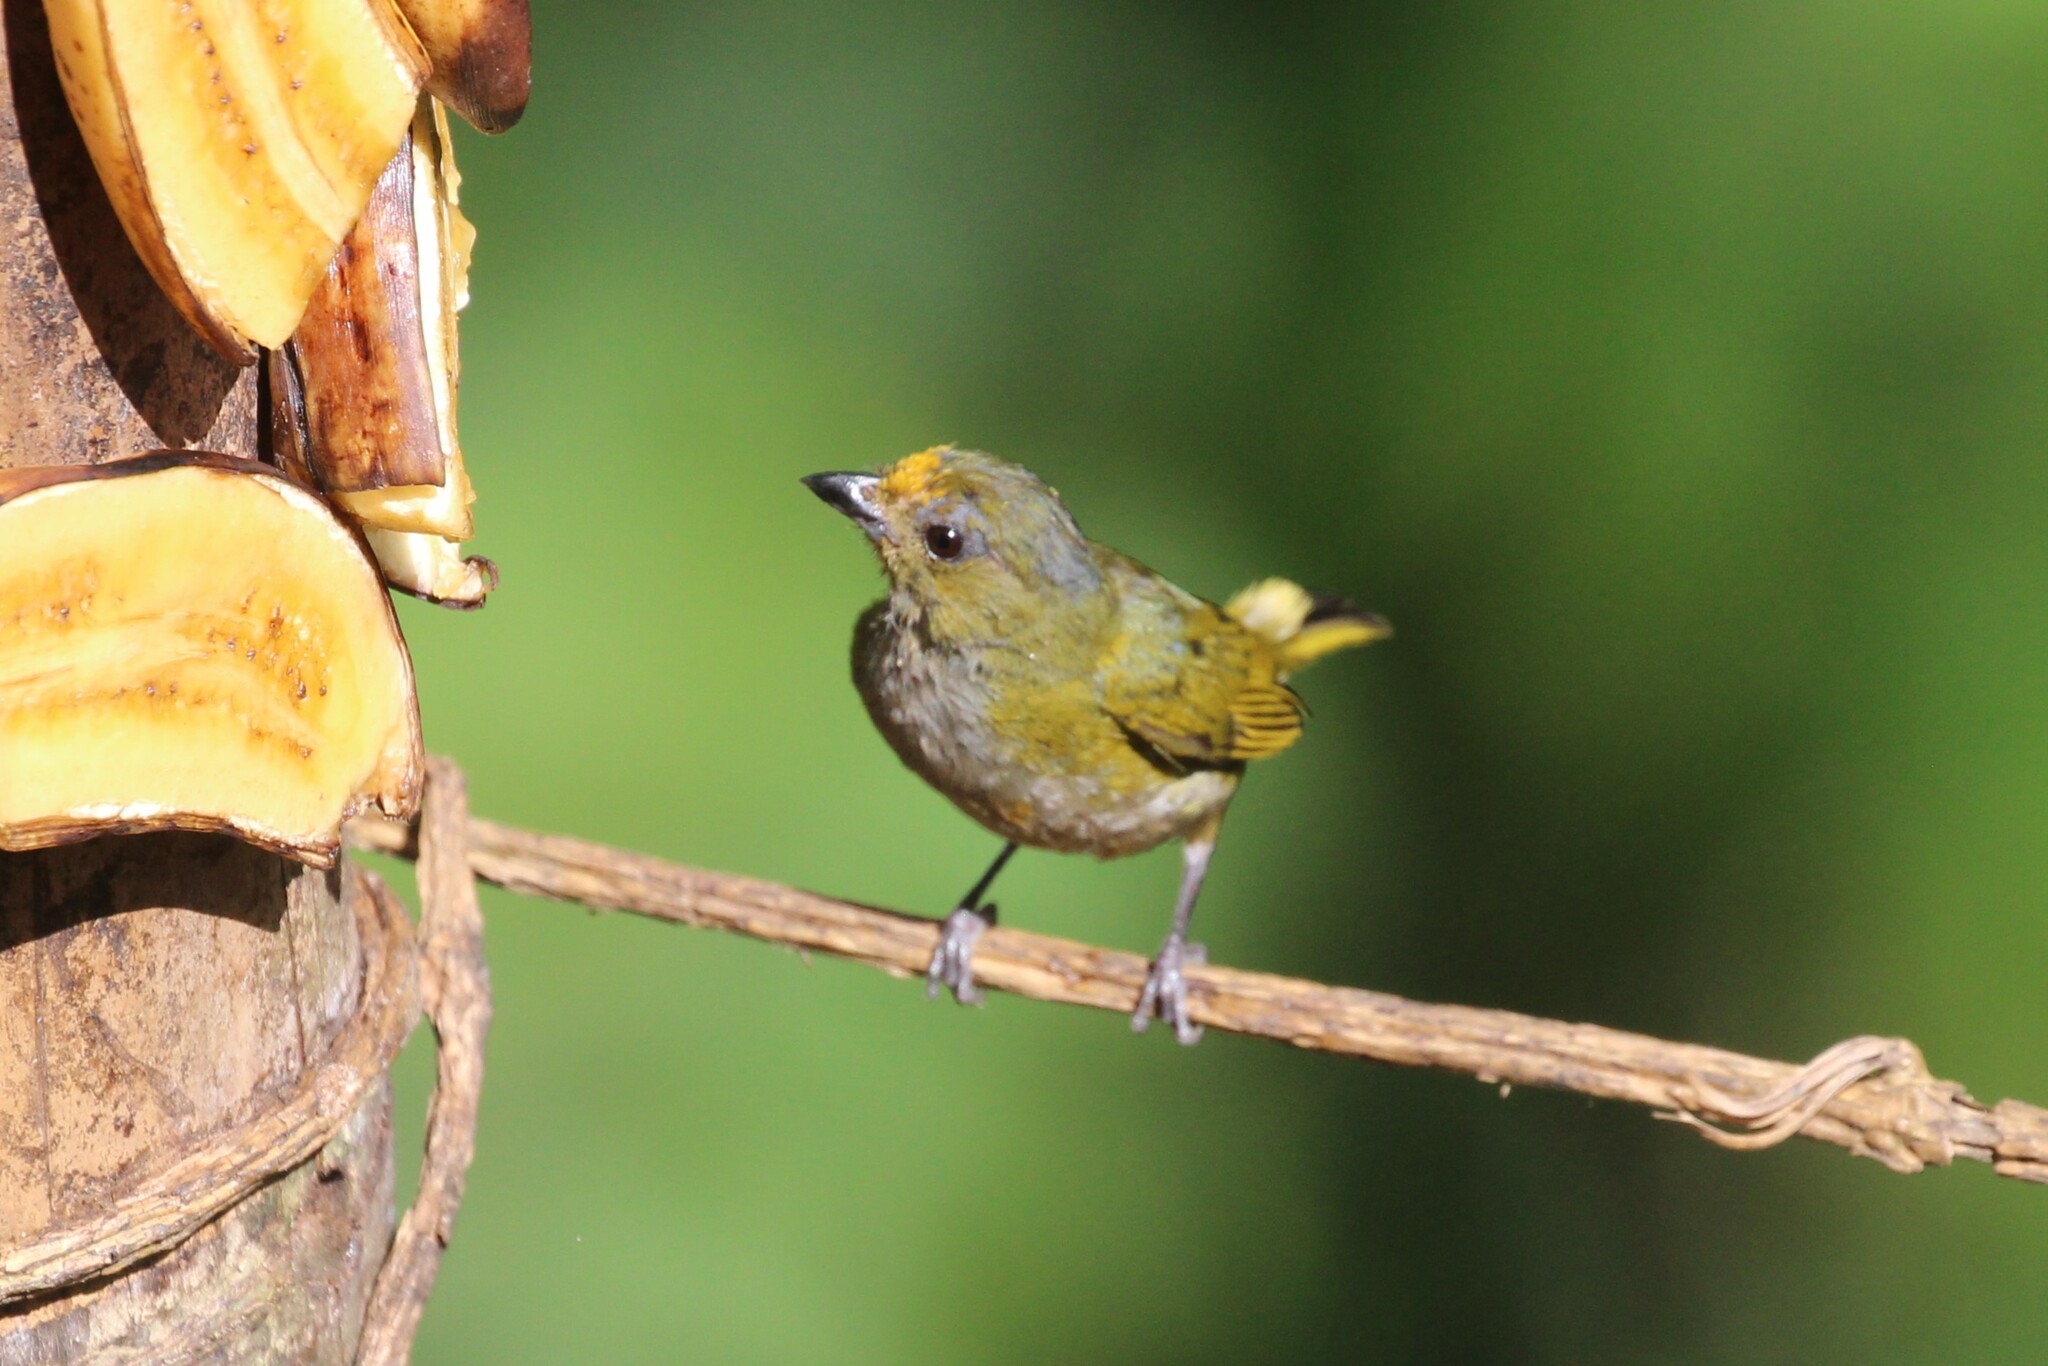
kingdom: Animalia
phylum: Chordata
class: Aves
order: Passeriformes
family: Fringillidae
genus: Euphonia
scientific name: Euphonia xanthogaster
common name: Orange-bellied euphonia
